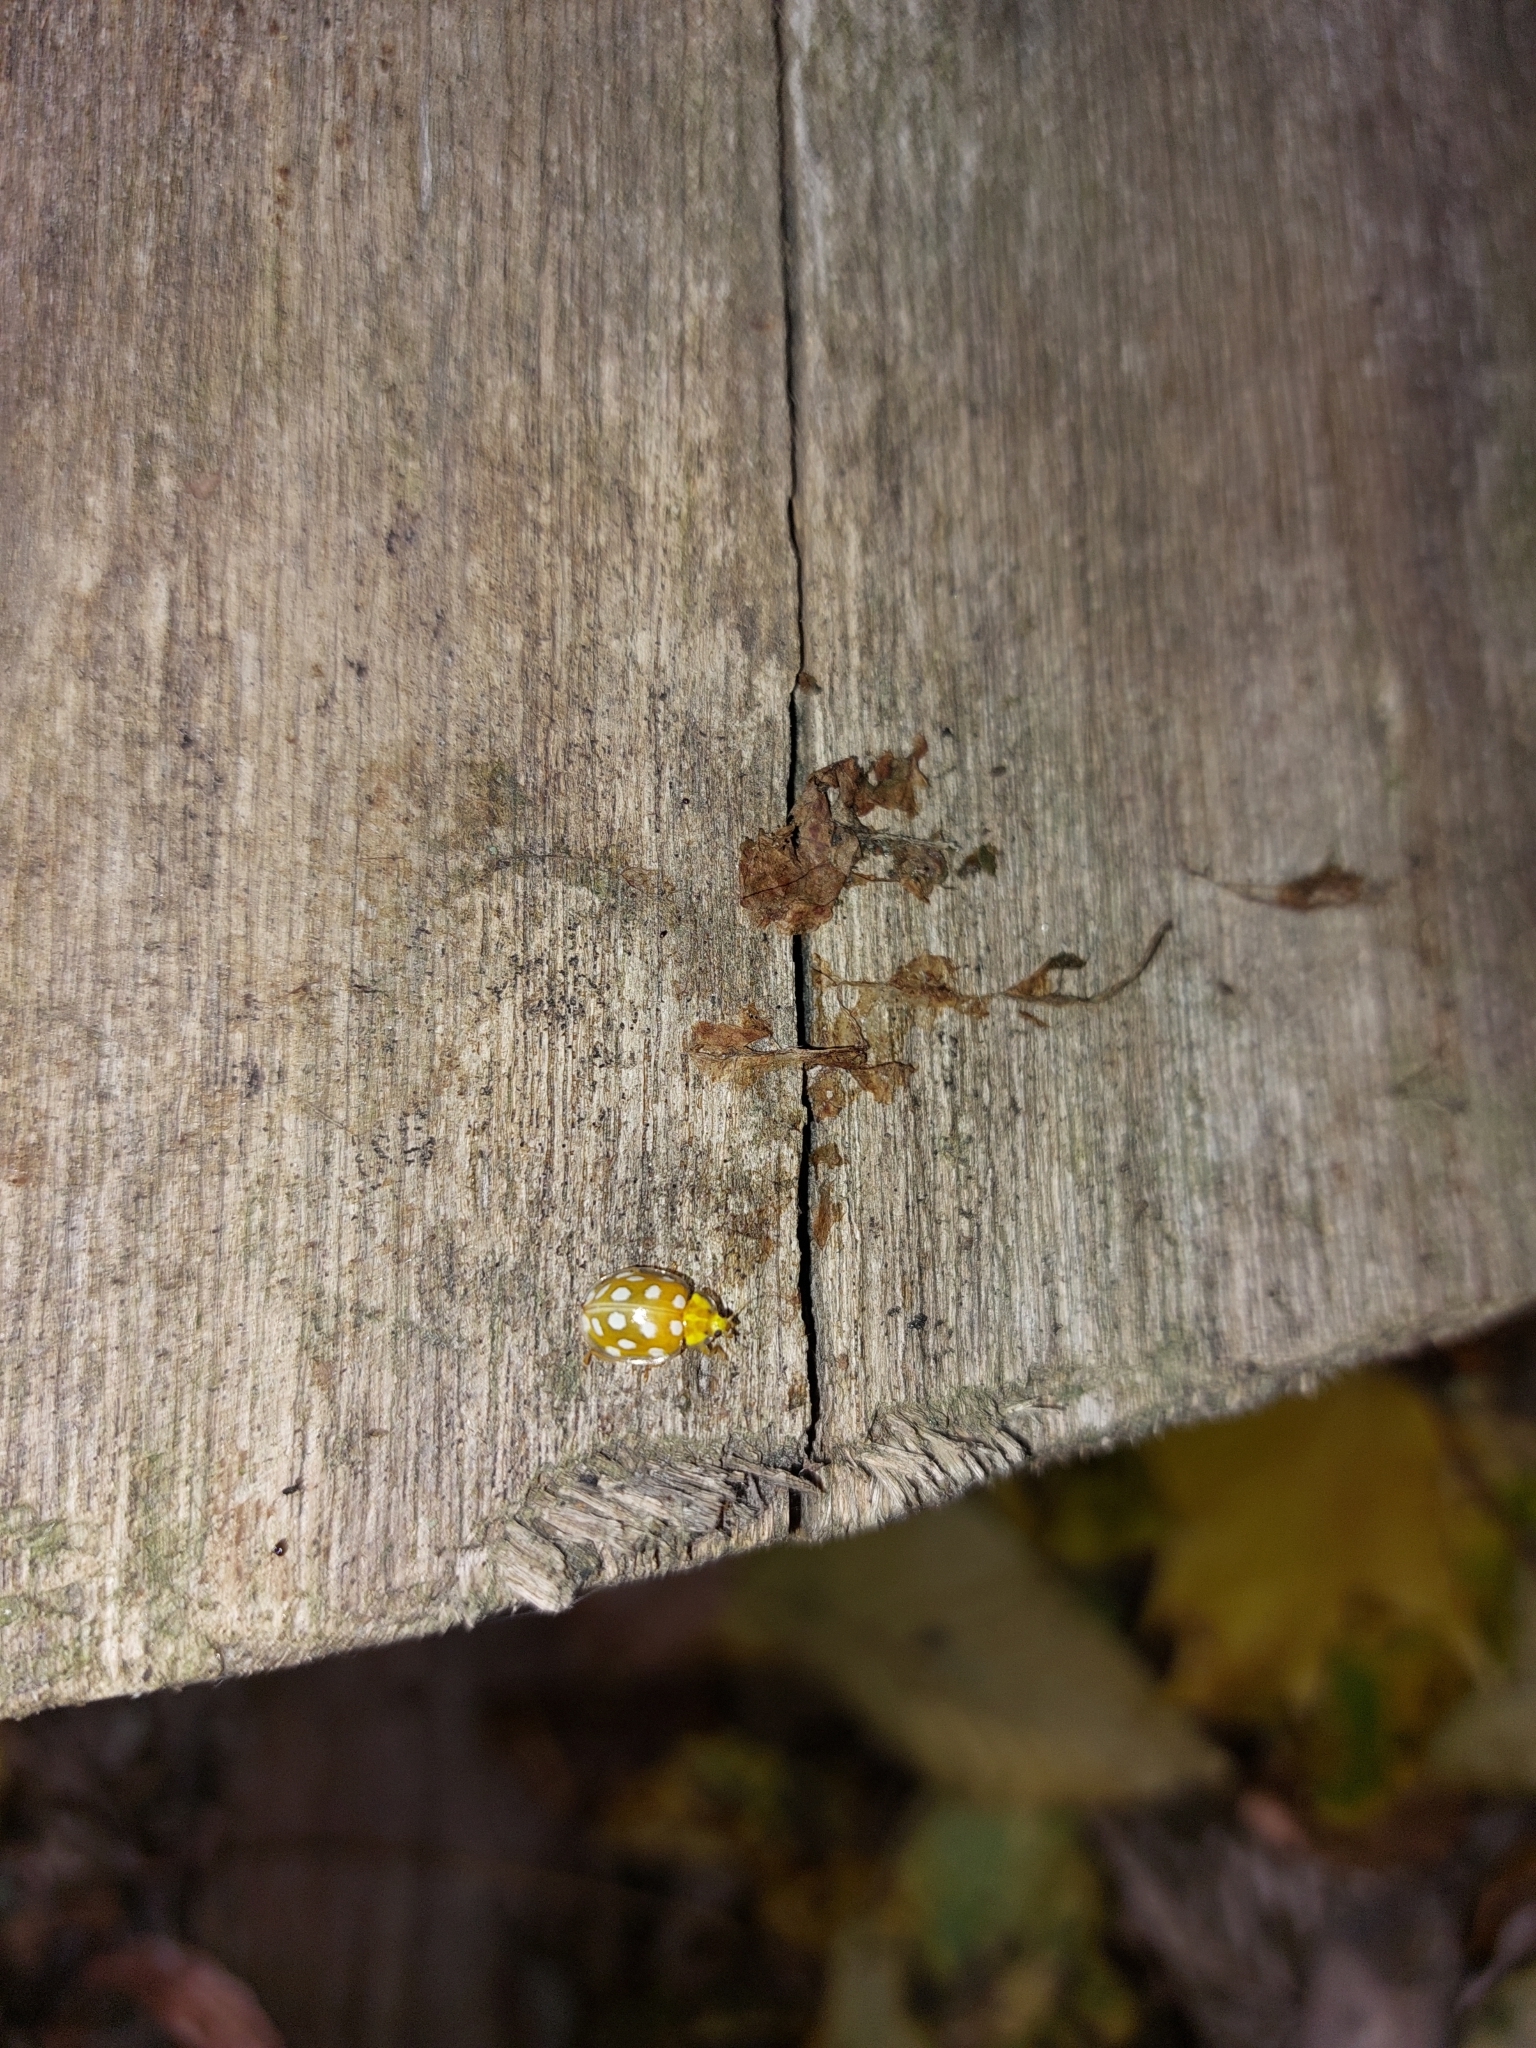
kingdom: Animalia
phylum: Arthropoda
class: Insecta
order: Coleoptera
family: Coccinellidae
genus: Halyzia
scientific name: Halyzia sedecimguttata
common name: Orange ladybird
